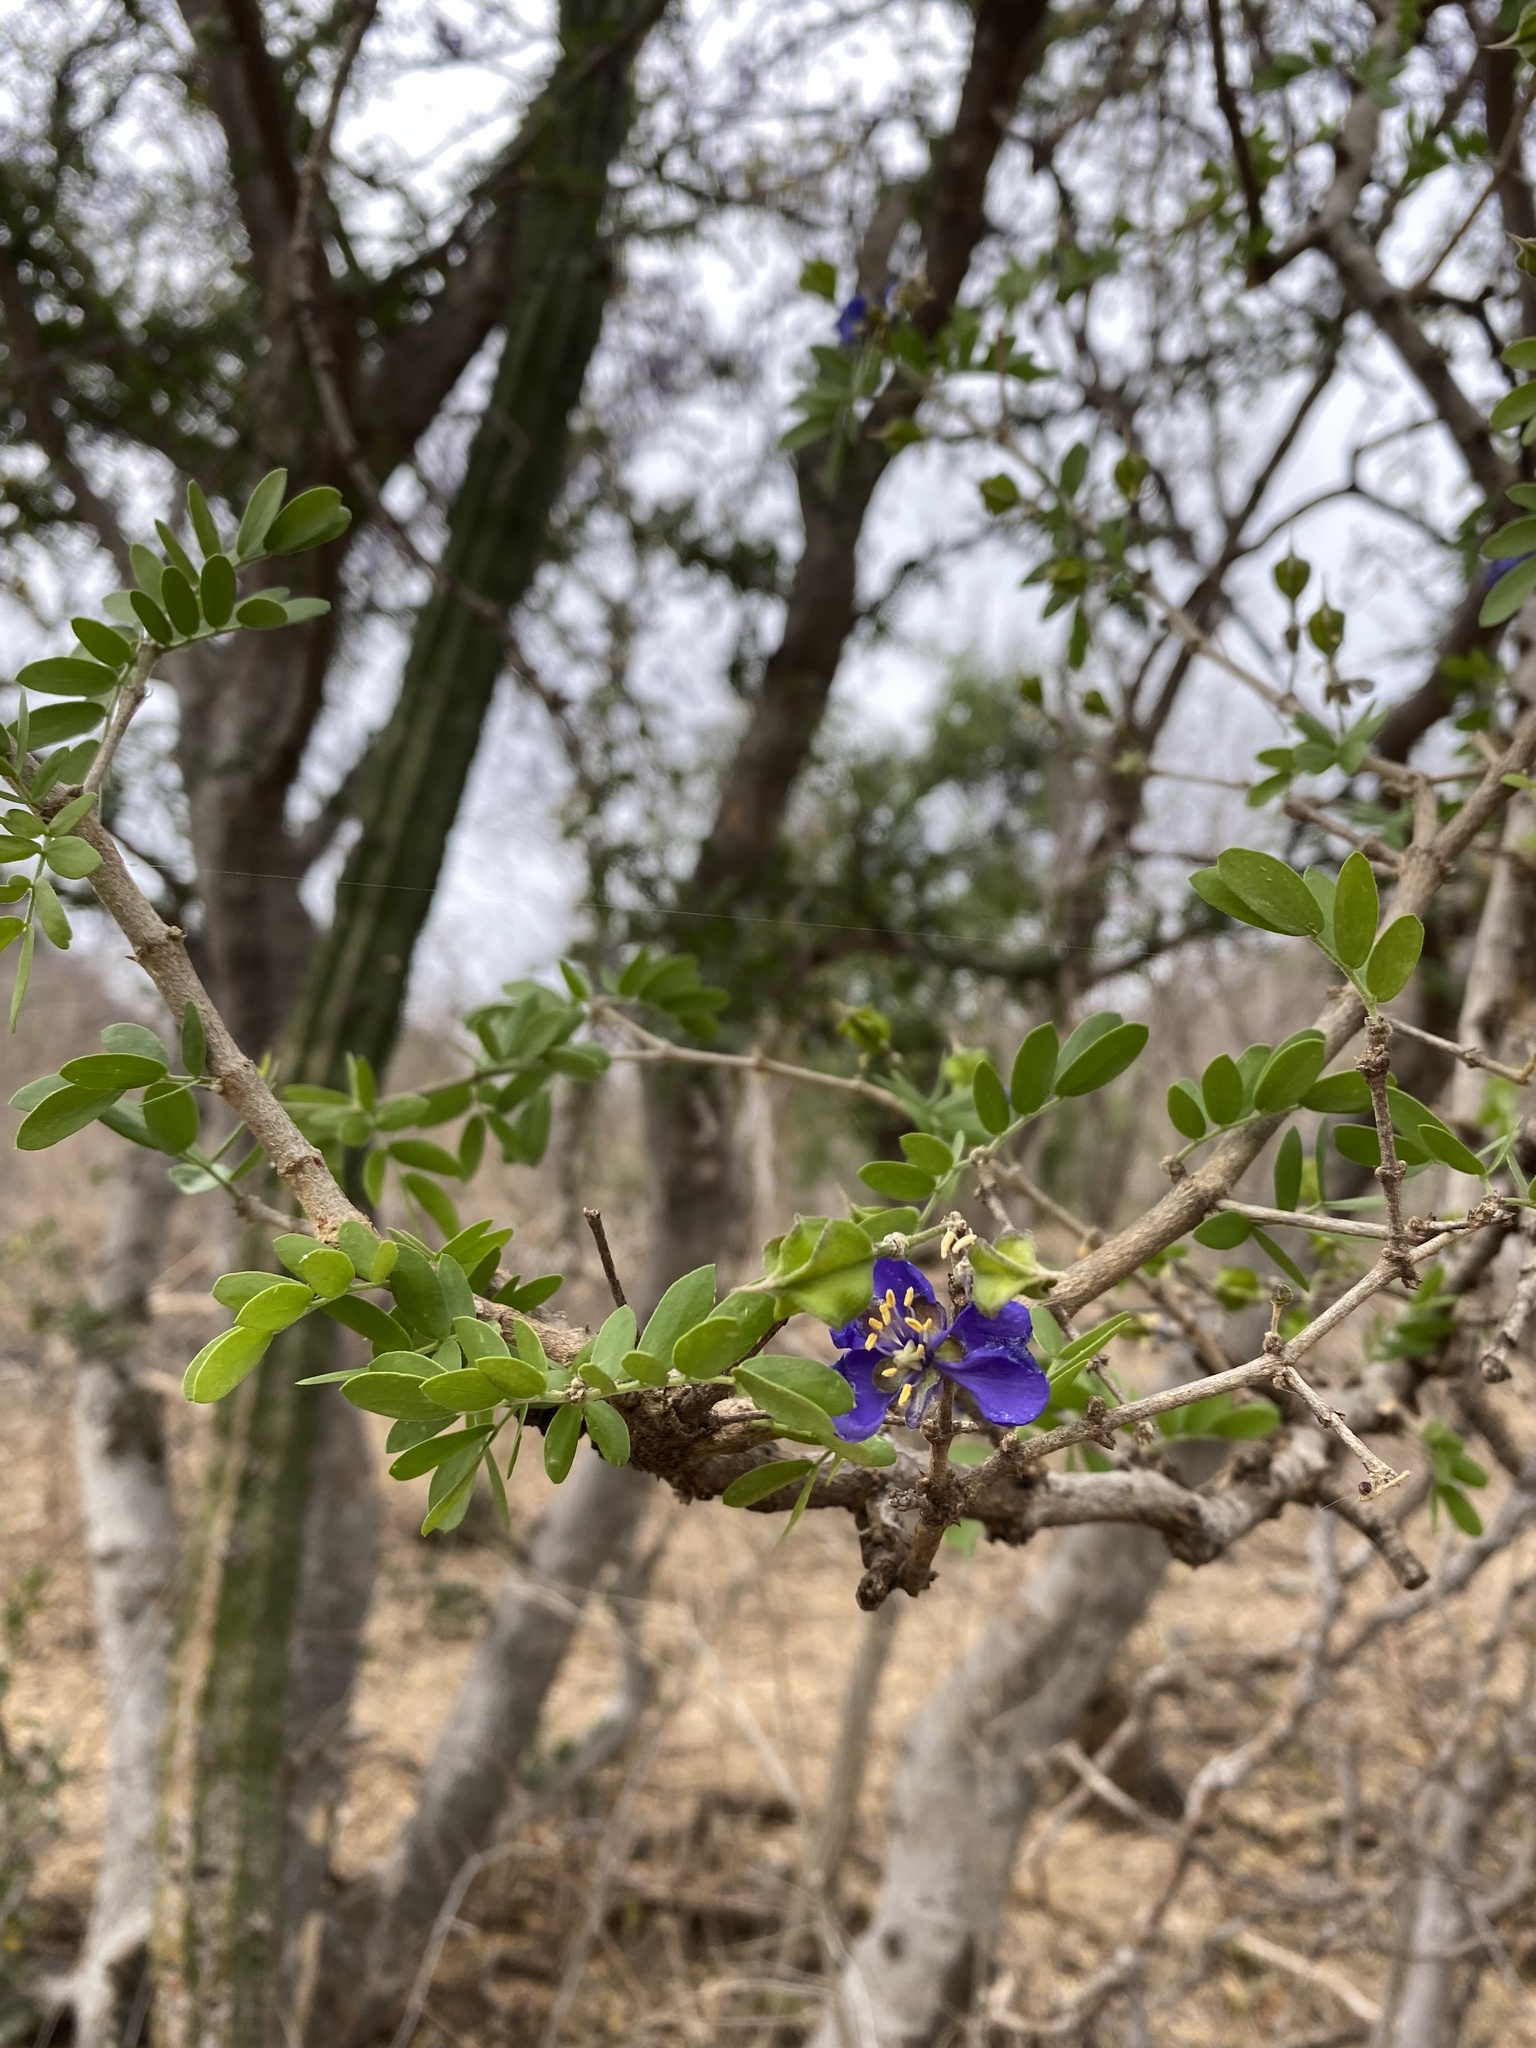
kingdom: Plantae
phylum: Tracheophyta
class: Magnoliopsida
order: Zygophyllales
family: Zygophyllaceae
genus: Guaiacum
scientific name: Guaiacum coulteri
